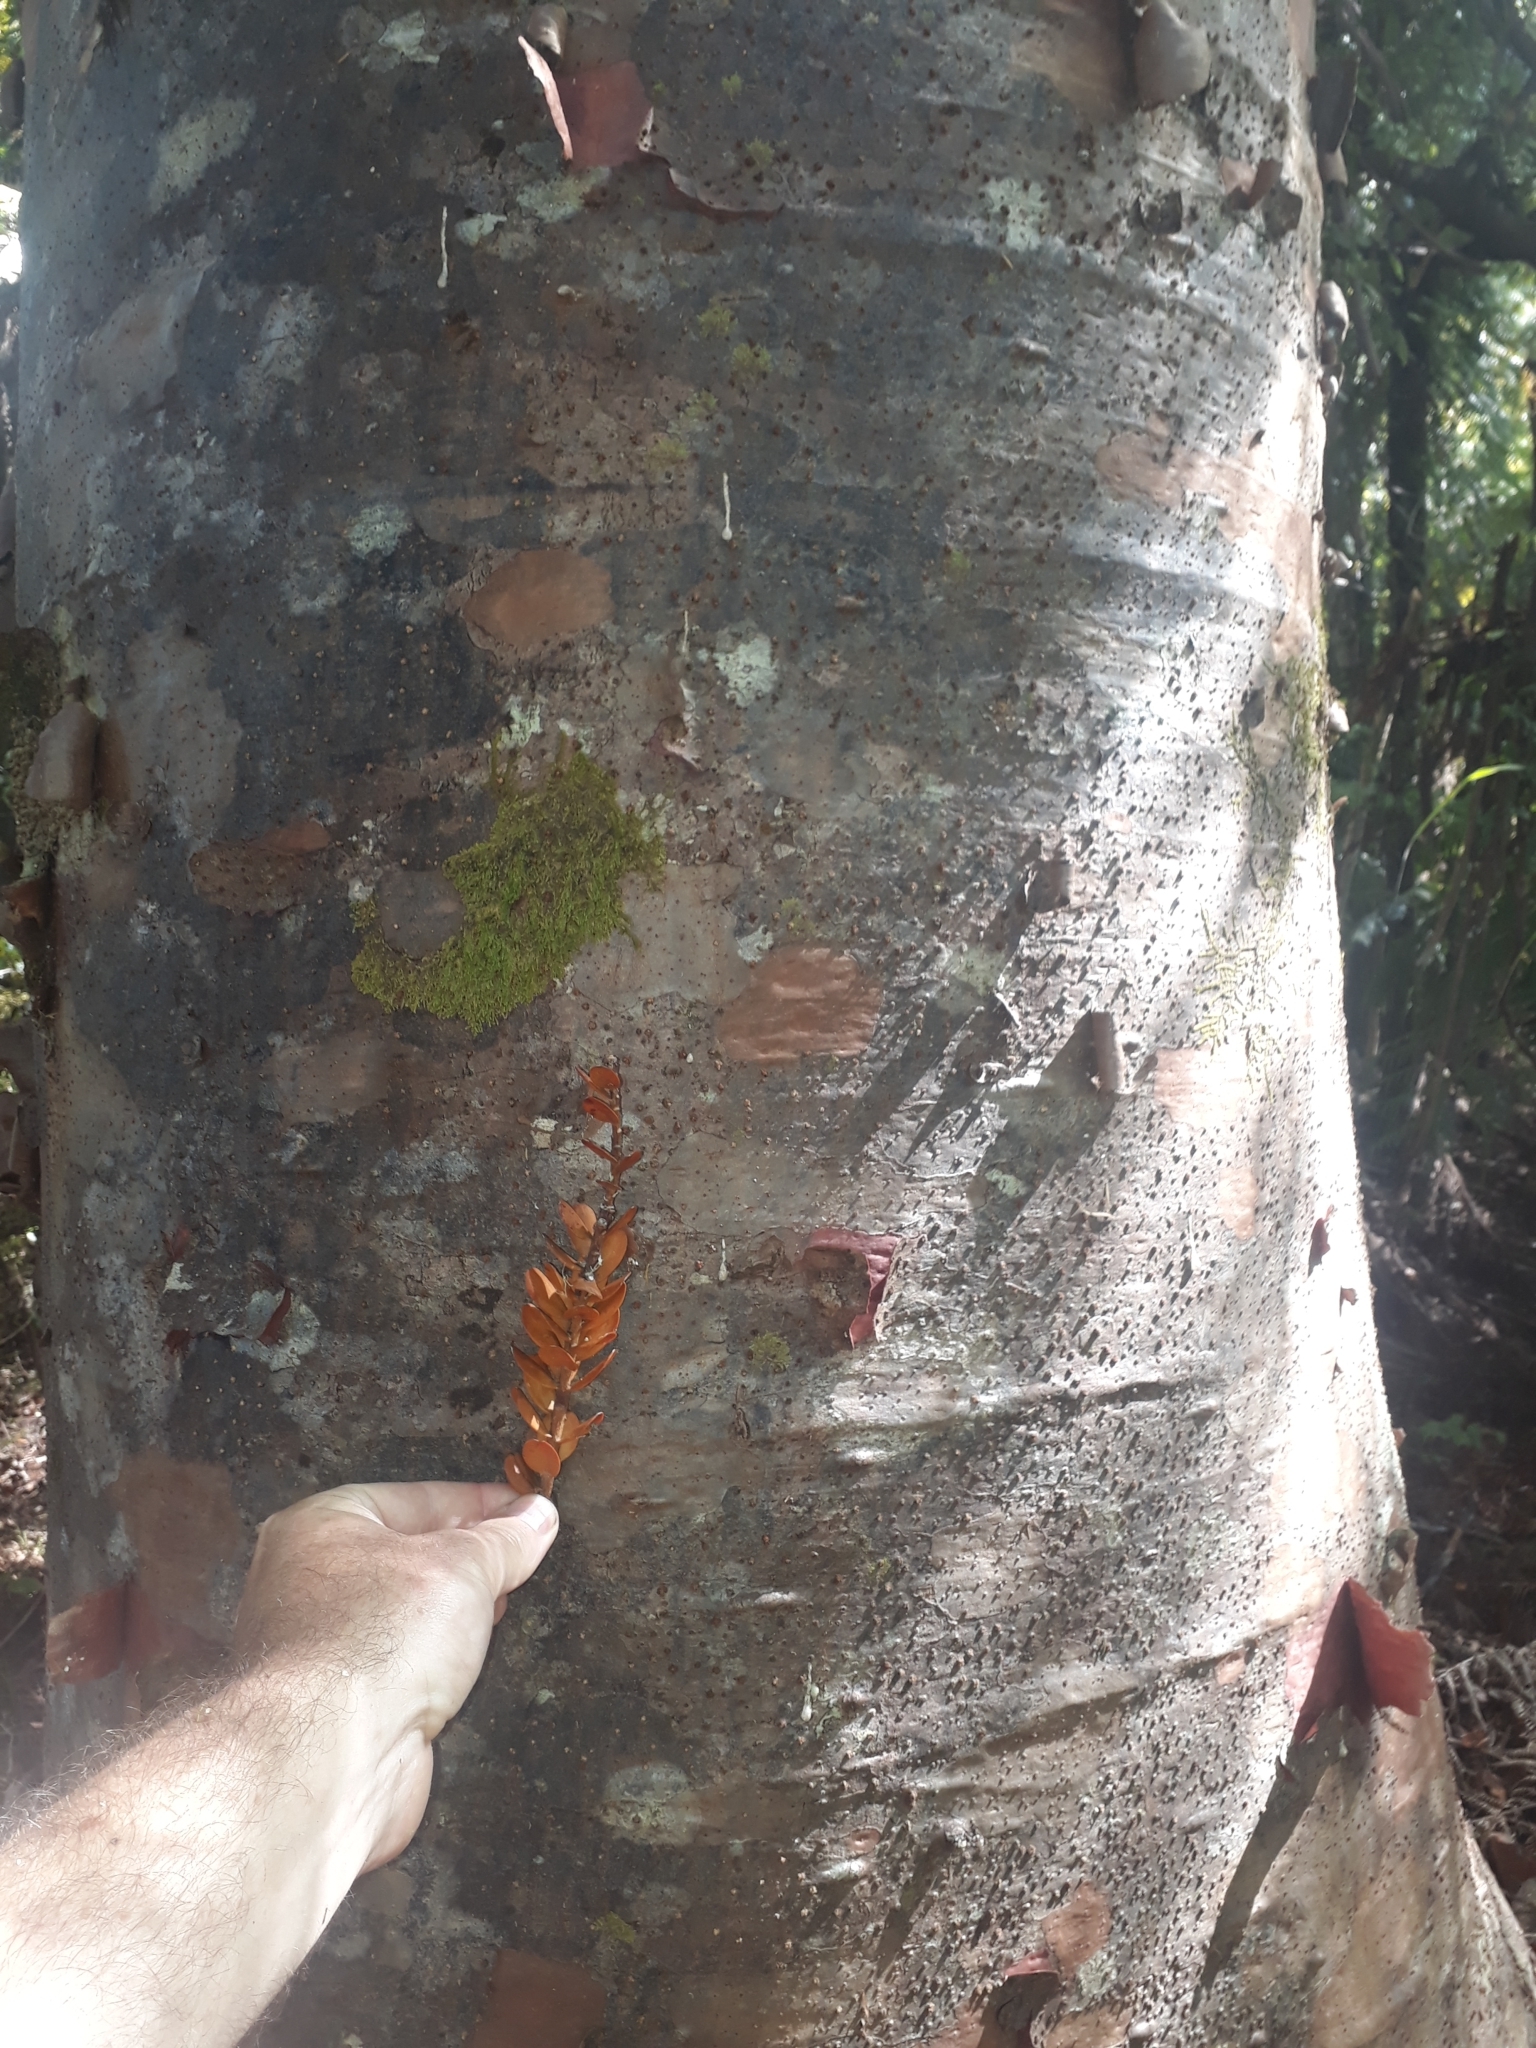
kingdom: Plantae
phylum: Tracheophyta
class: Pinopsida
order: Pinales
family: Araucariaceae
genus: Agathis
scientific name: Agathis australis
